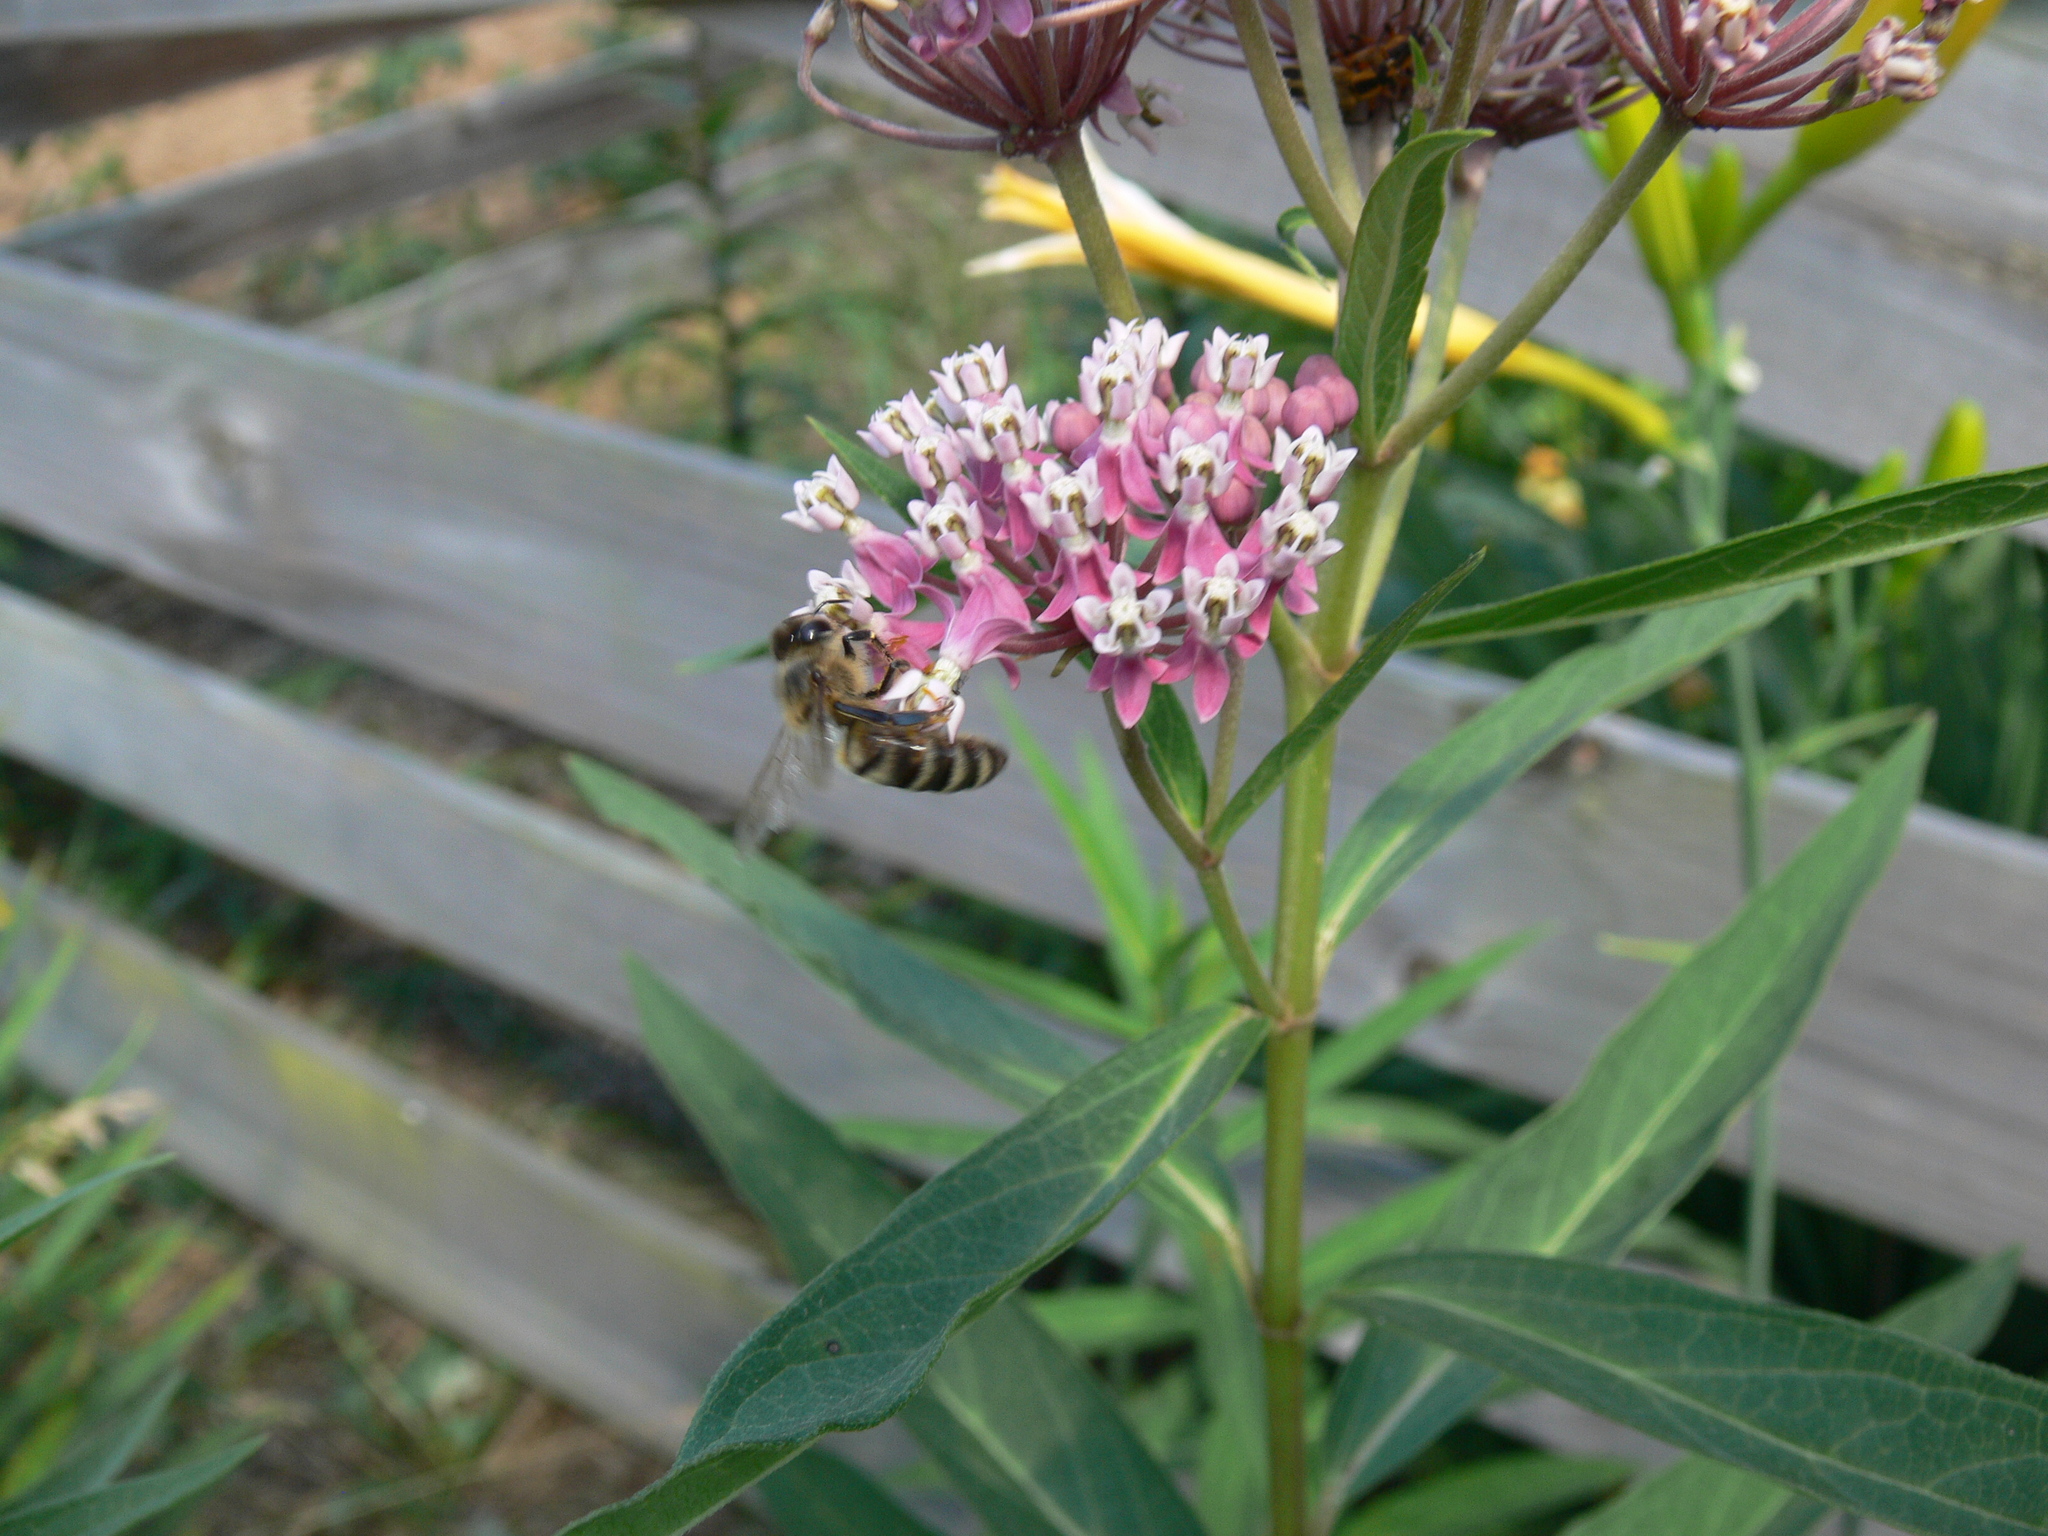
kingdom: Animalia
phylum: Arthropoda
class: Insecta
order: Hymenoptera
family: Apidae
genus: Apis
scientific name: Apis mellifera
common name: Honey bee
